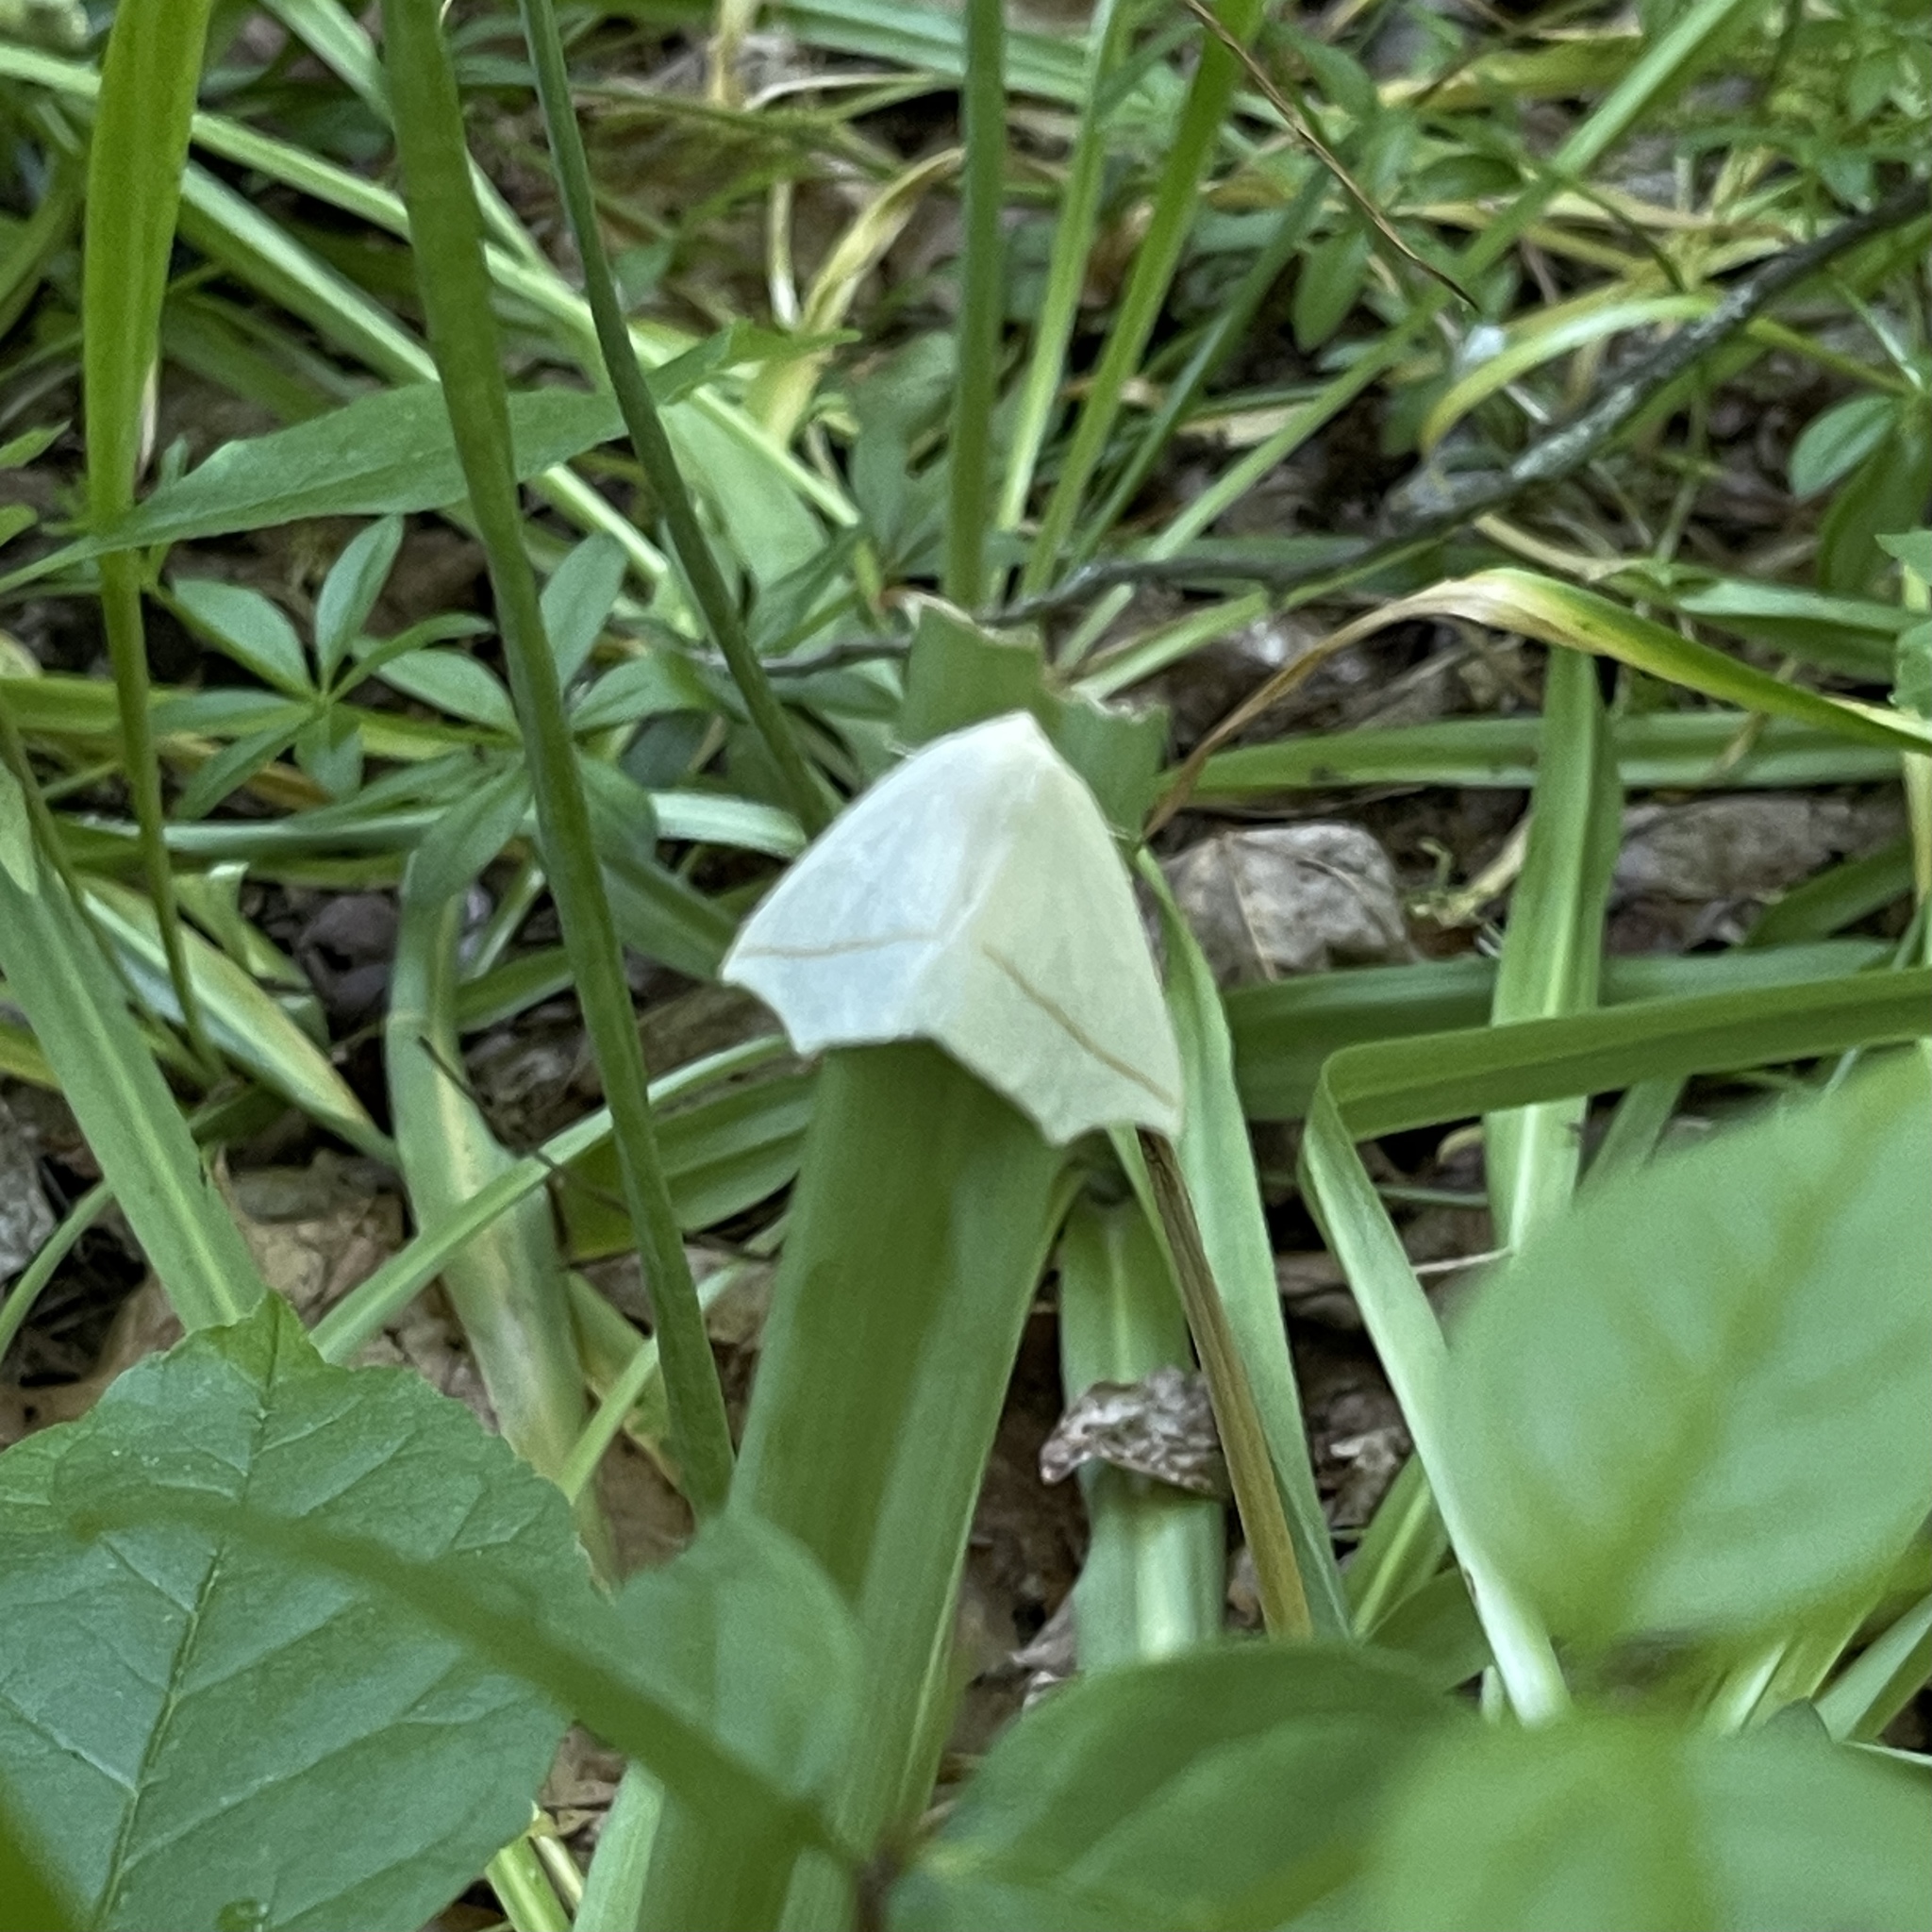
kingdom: Animalia
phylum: Arthropoda
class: Insecta
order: Lepidoptera
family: Geometridae
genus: Tetracis
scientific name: Tetracis cachexiata
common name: White slant-line
